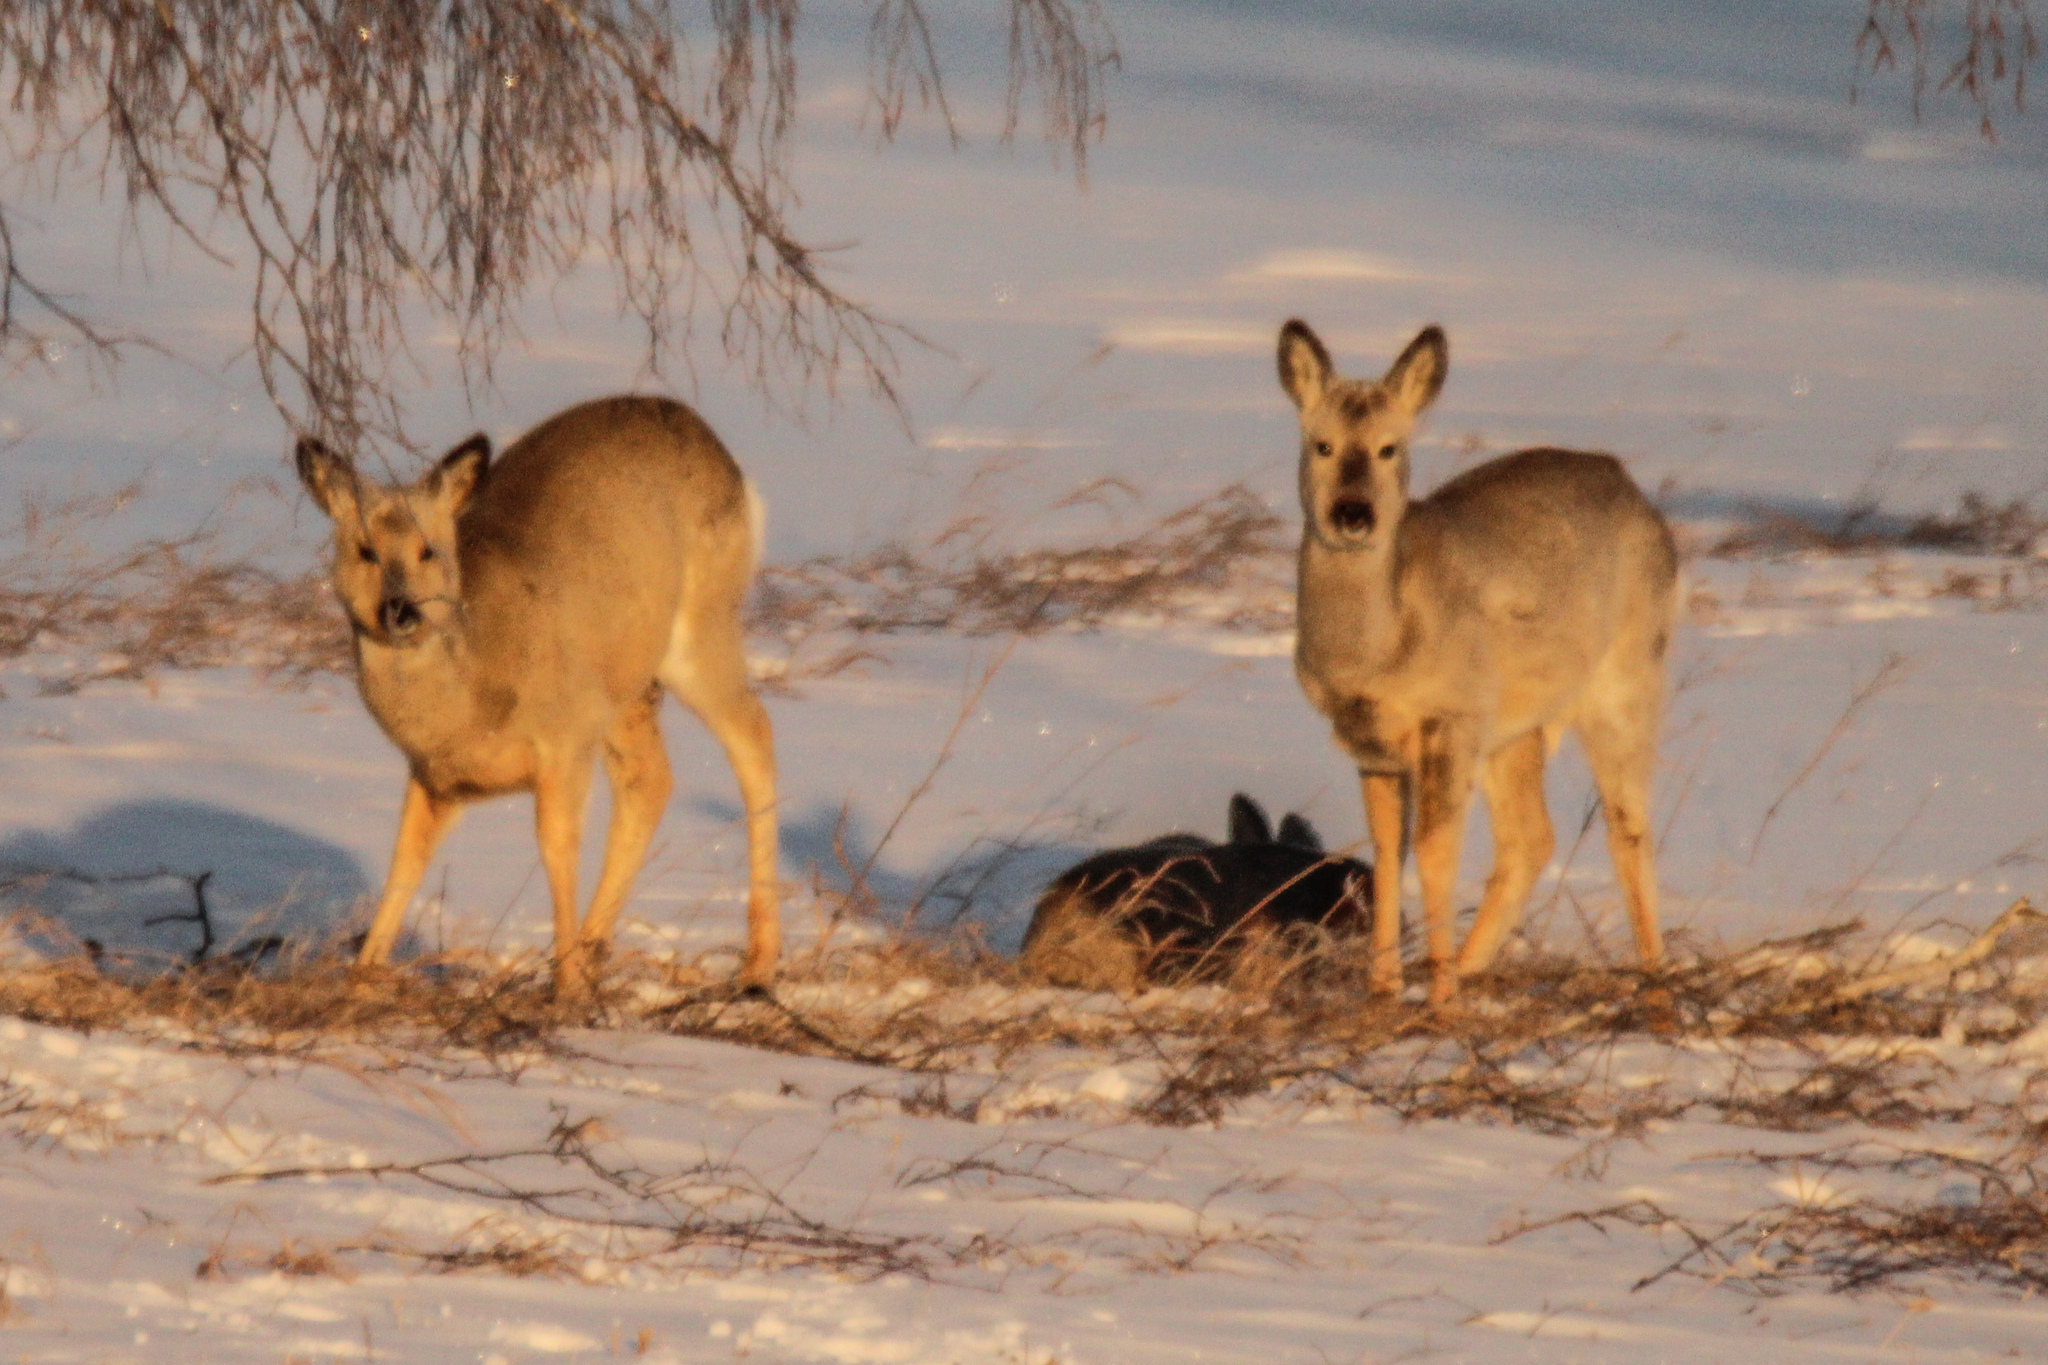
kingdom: Animalia
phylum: Chordata
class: Mammalia
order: Artiodactyla
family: Cervidae
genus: Capreolus
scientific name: Capreolus pygargus
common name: Siberian roe
